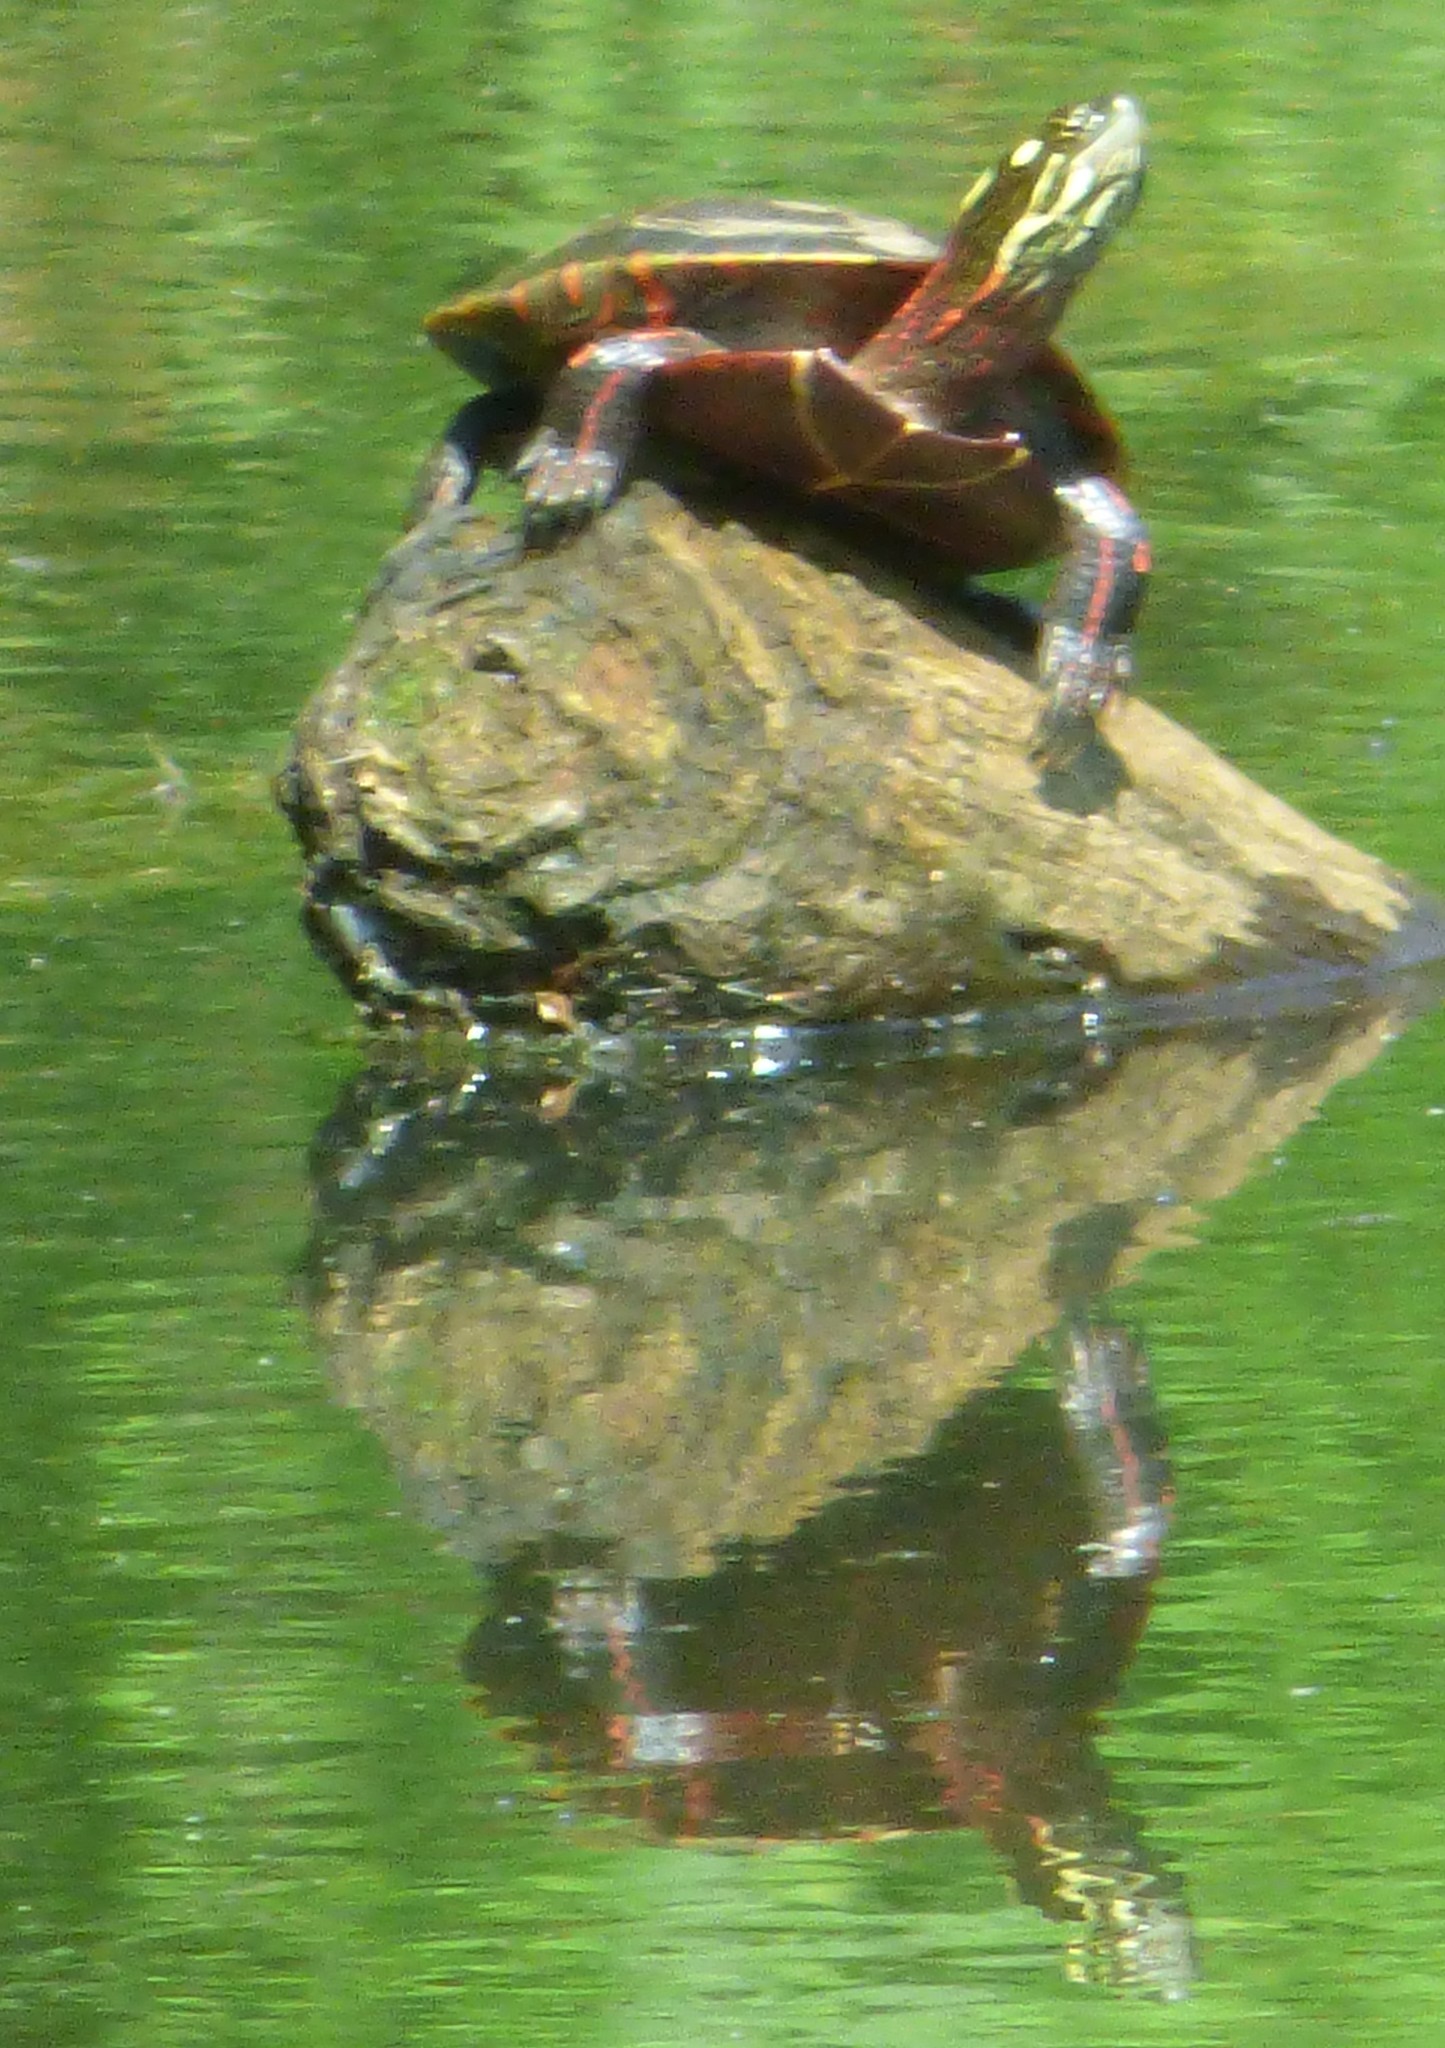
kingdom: Animalia
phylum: Chordata
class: Testudines
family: Emydidae
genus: Chrysemys
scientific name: Chrysemys picta
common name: Painted turtle
